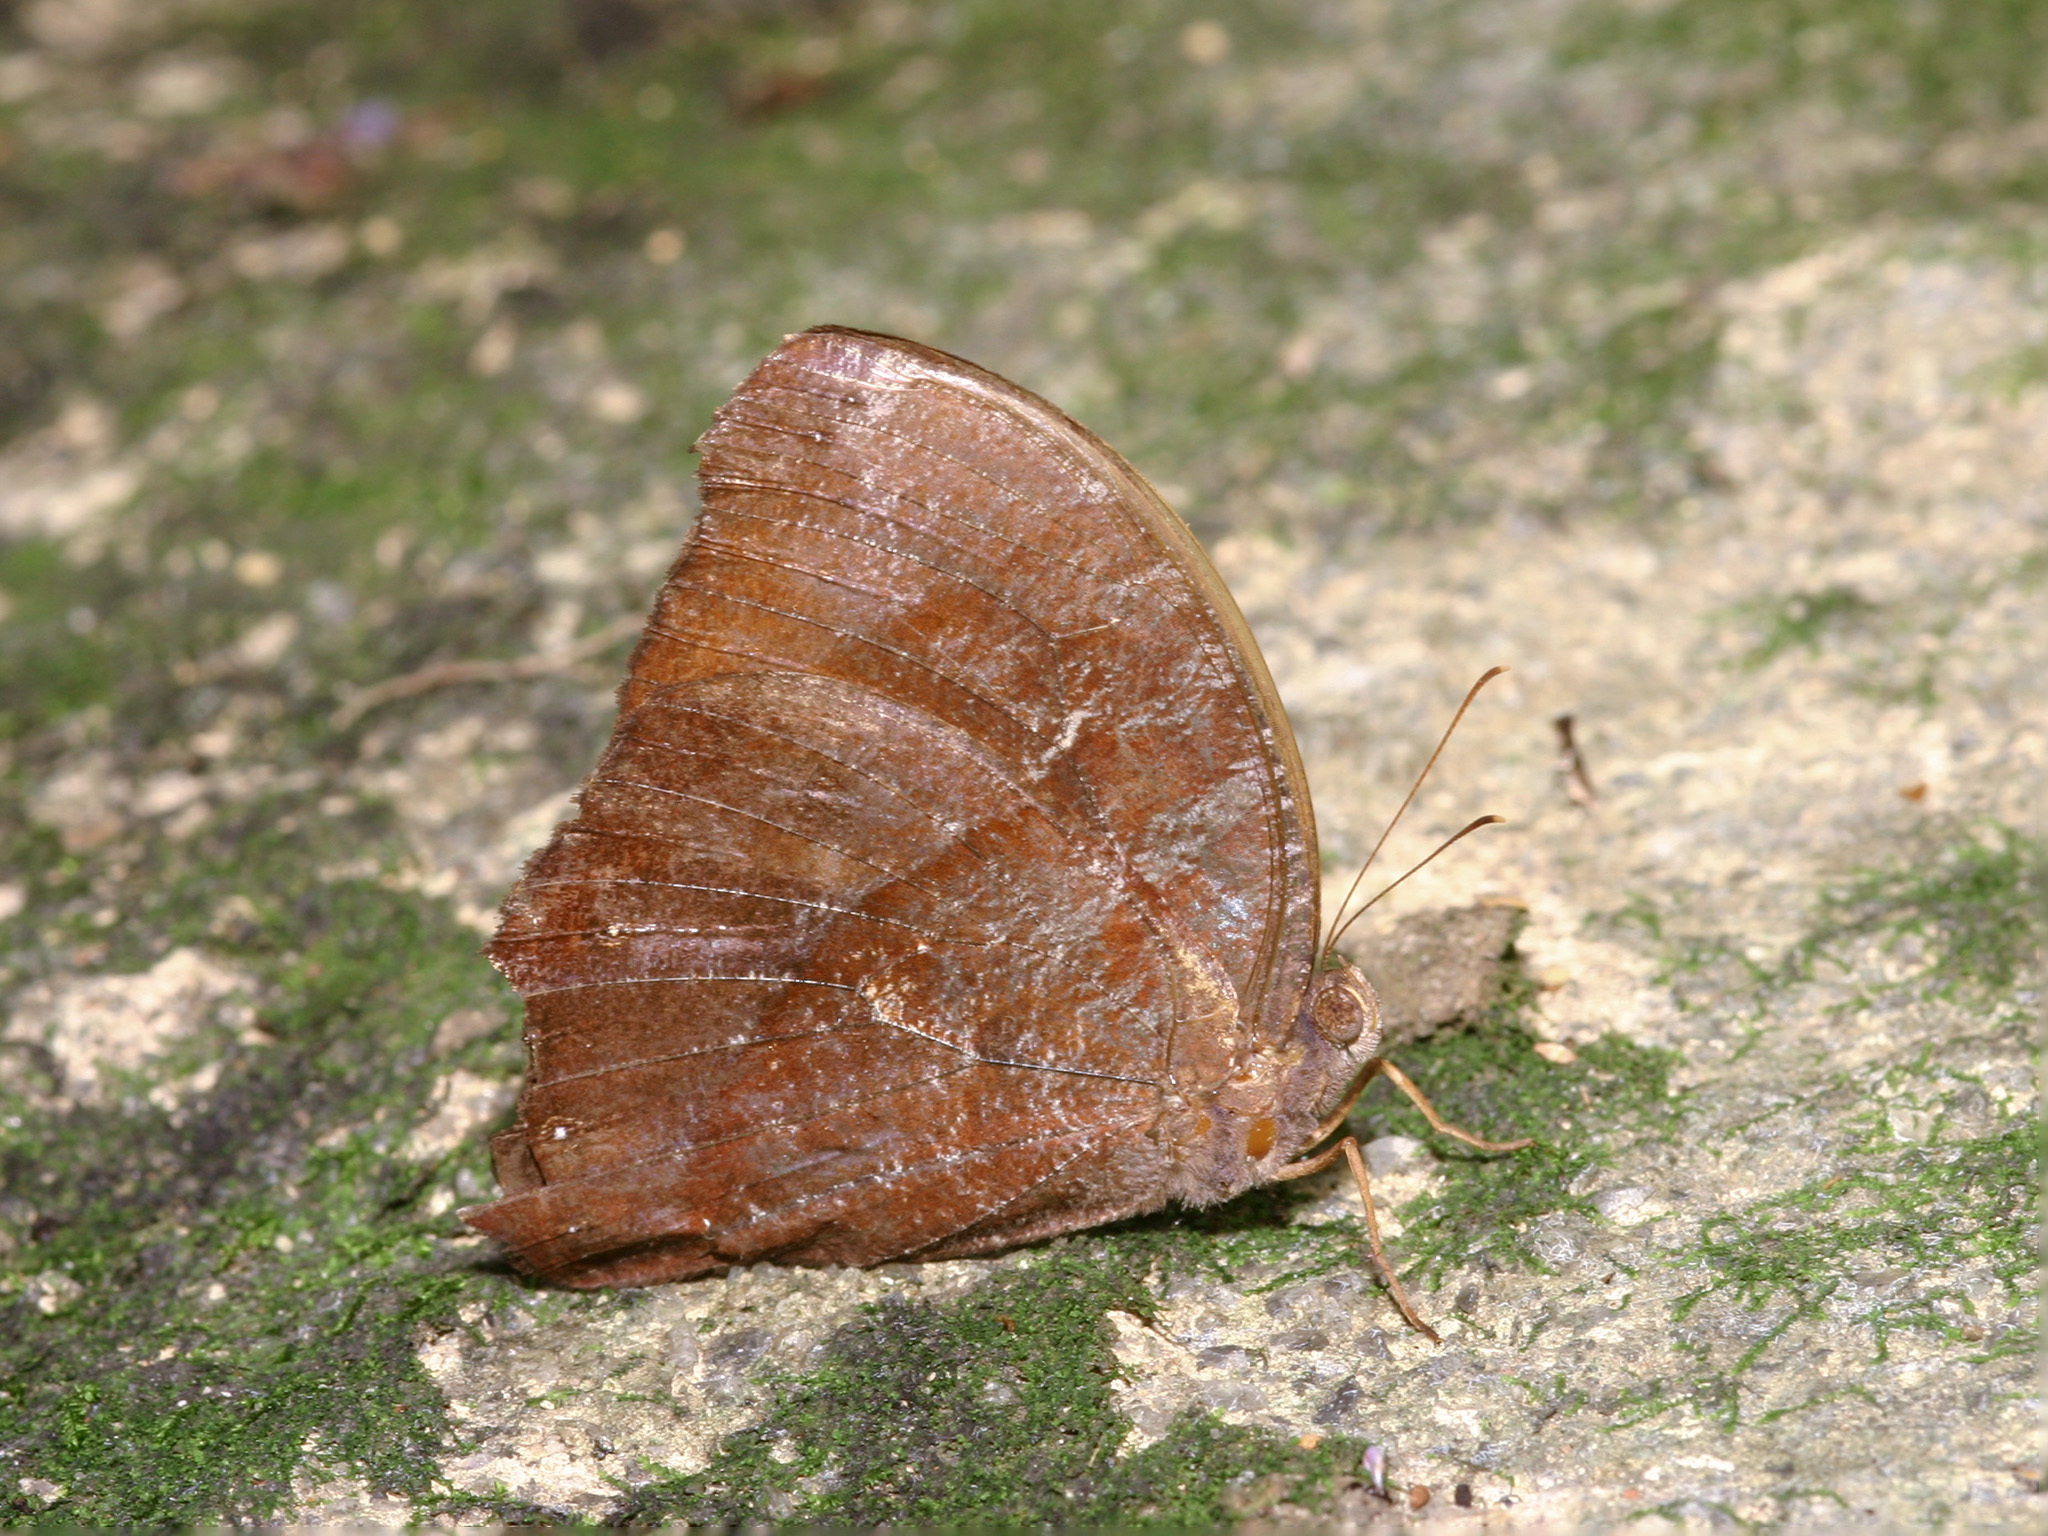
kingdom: Animalia
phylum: Arthropoda
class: Insecta
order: Lepidoptera
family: Nymphalidae
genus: Melanitis
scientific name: Melanitis phedima
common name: Dark evening brown
